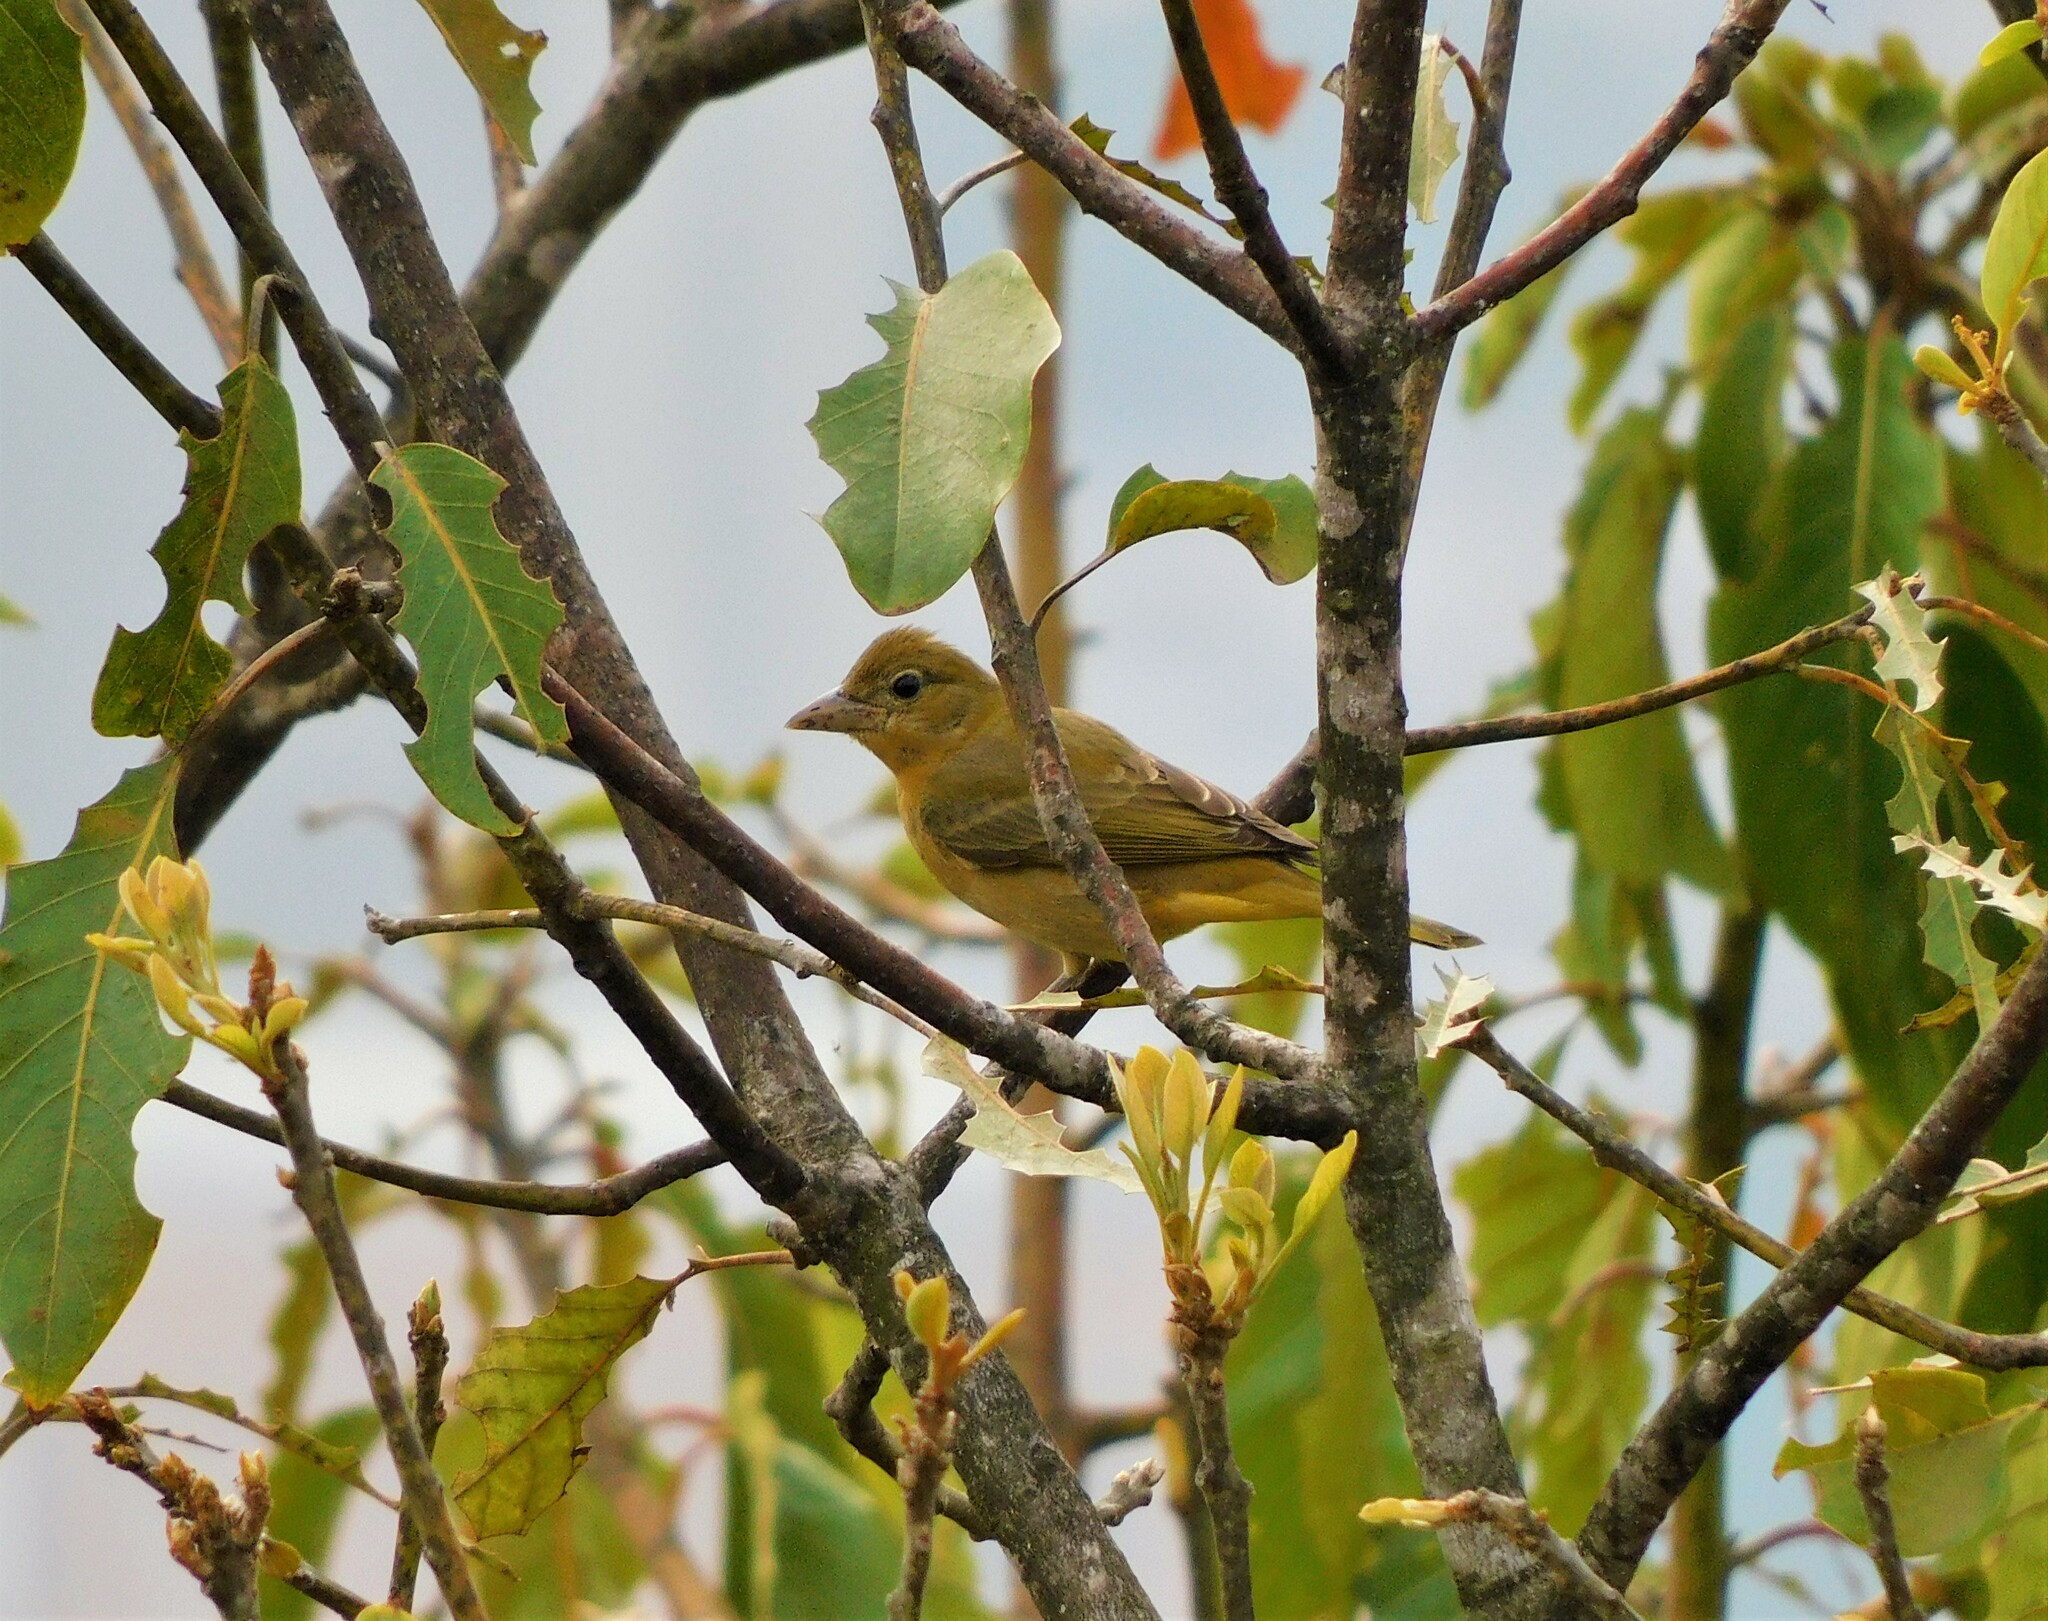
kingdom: Animalia
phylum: Chordata
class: Aves
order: Passeriformes
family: Cardinalidae
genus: Piranga
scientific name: Piranga rubra
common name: Summer tanager
